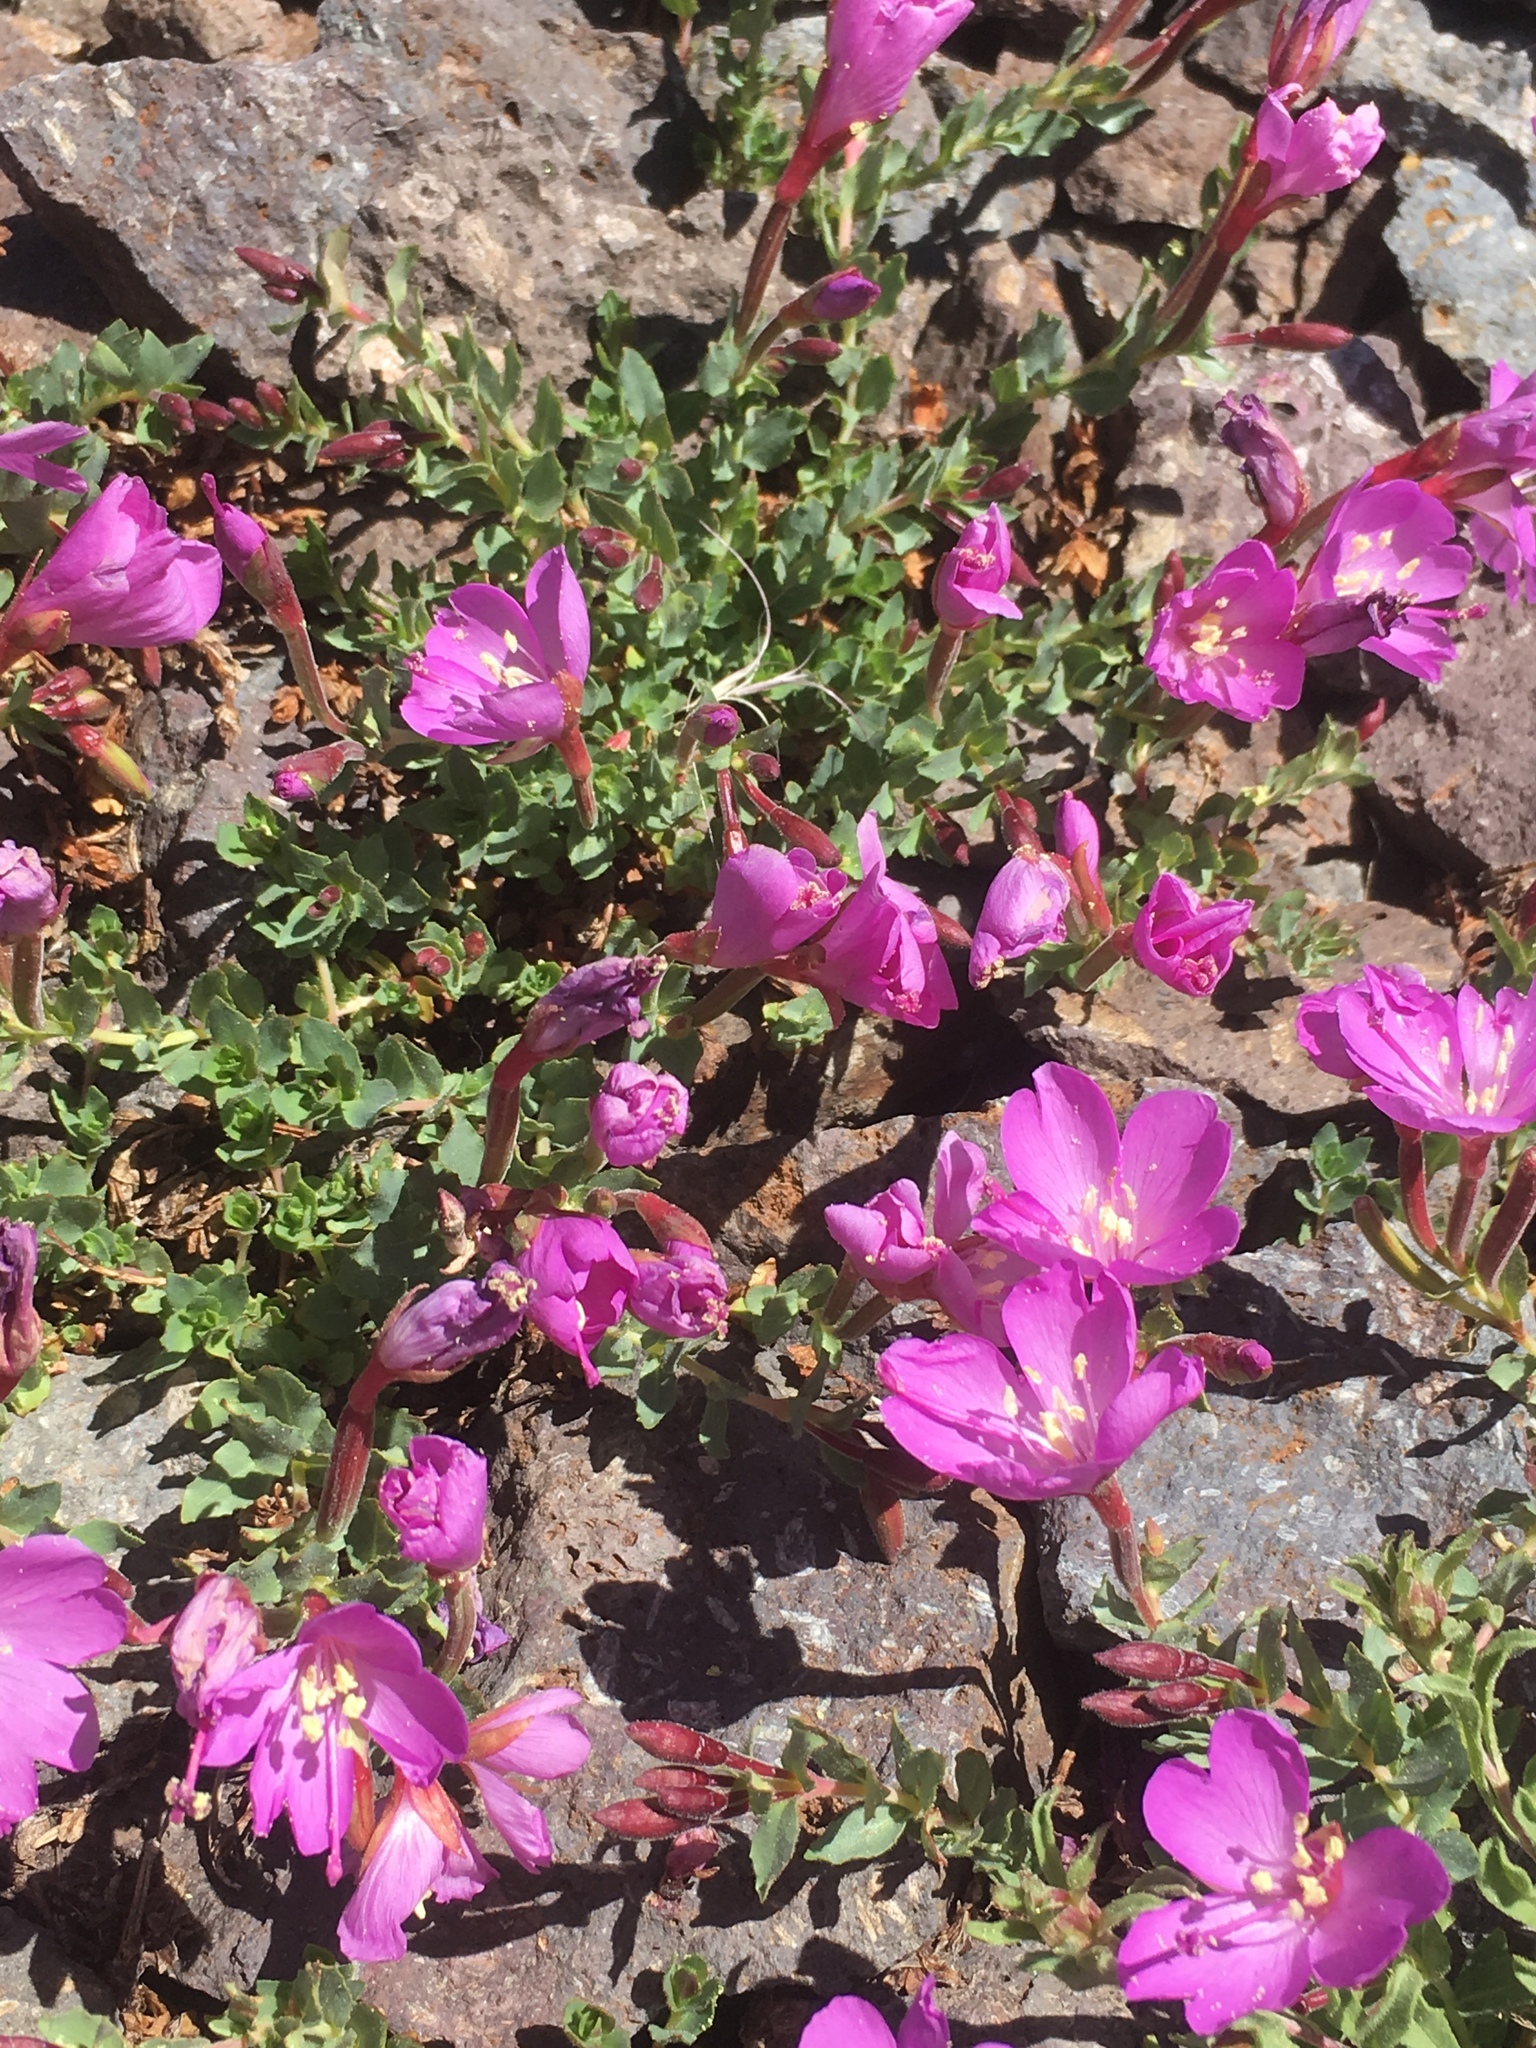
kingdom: Plantae
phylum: Tracheophyta
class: Magnoliopsida
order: Myrtales
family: Onagraceae
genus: Epilobium
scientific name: Epilobium obcordatum
